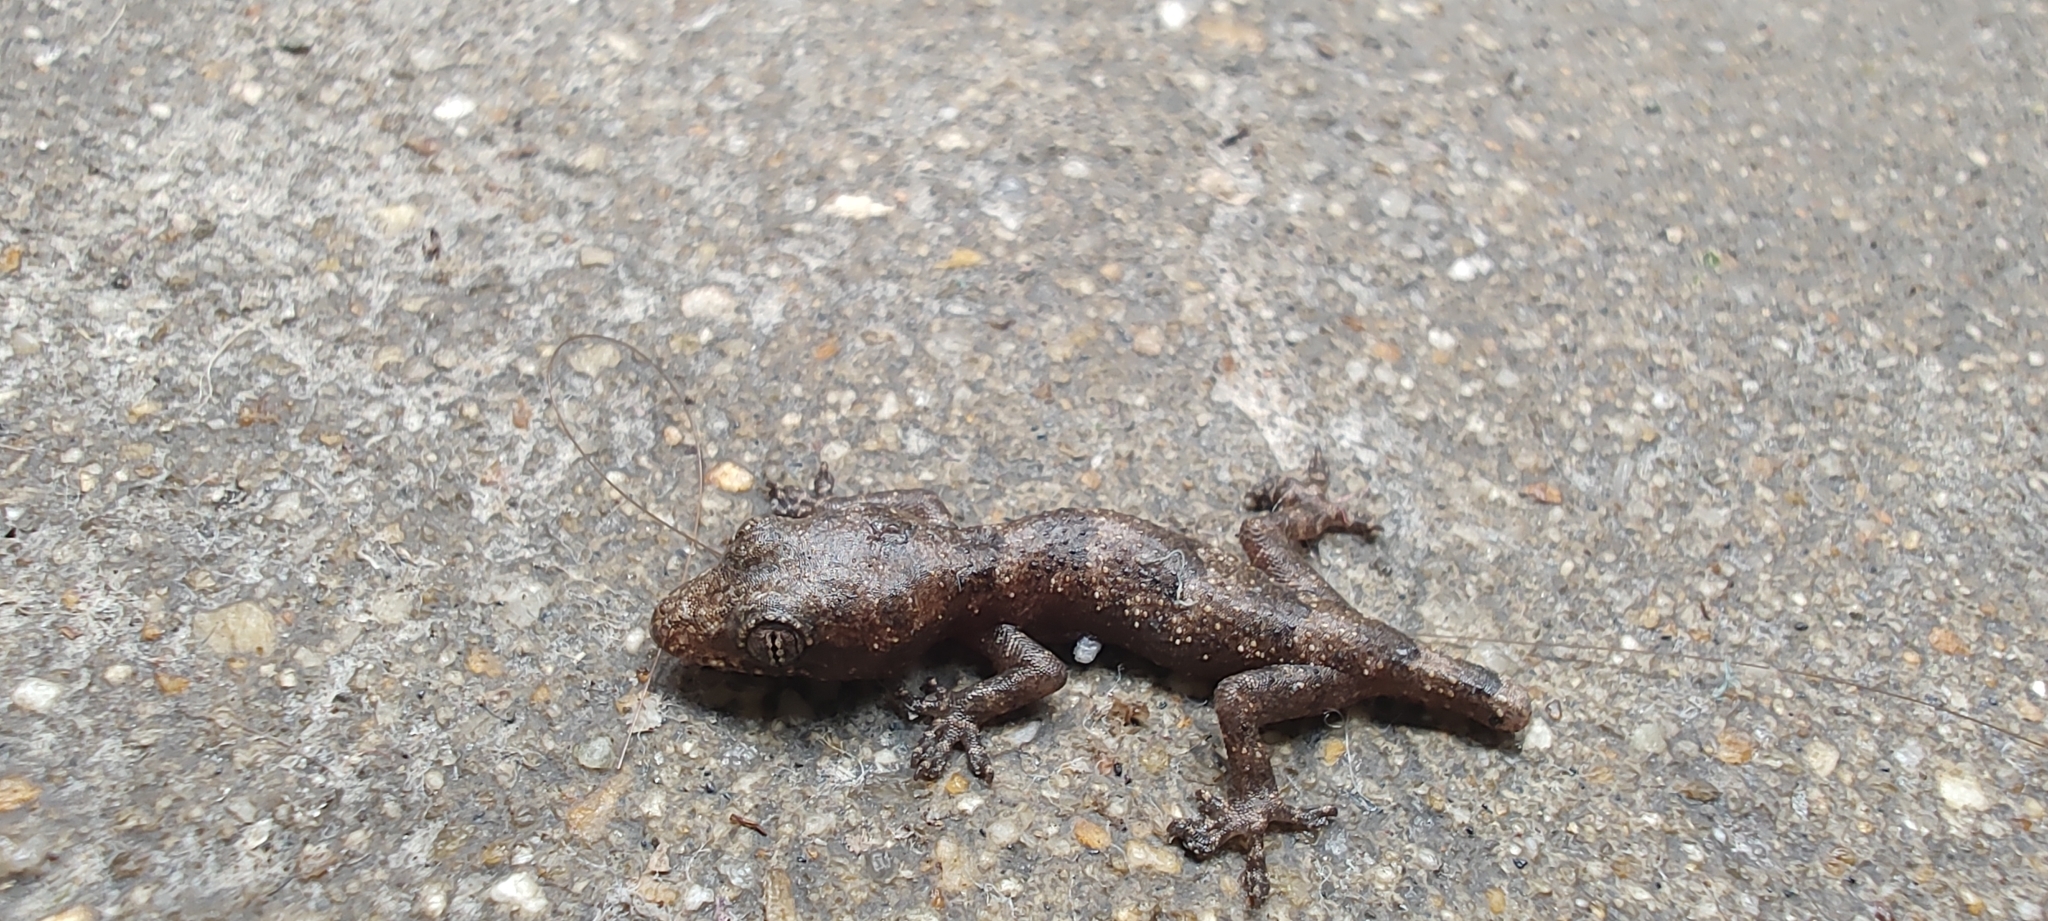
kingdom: Animalia
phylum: Chordata
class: Squamata
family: Gekkonidae
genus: Hemidactylus
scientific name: Hemidactylus mabouia
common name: House gecko
